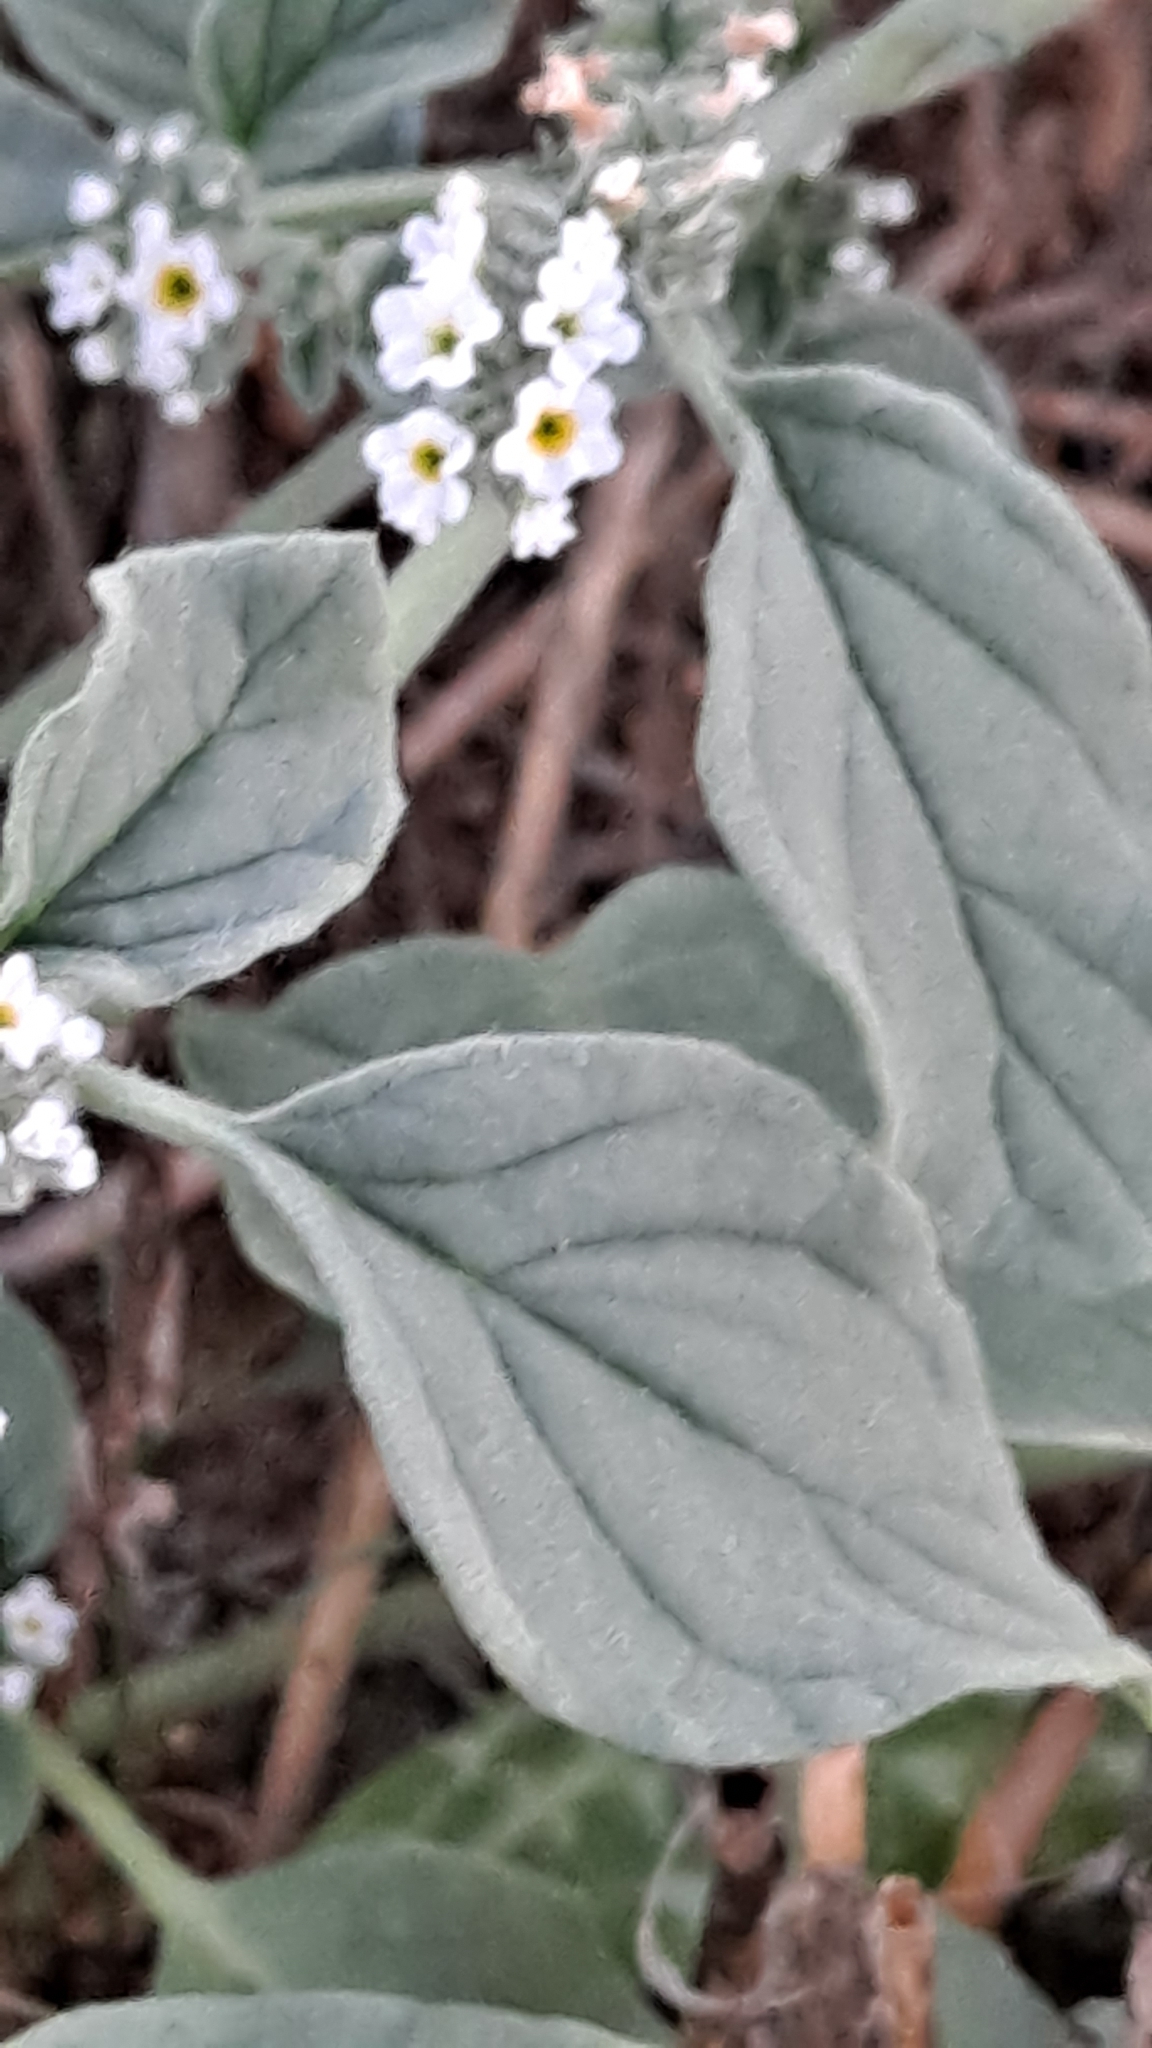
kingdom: Plantae
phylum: Tracheophyta
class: Magnoliopsida
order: Boraginales
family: Heliotropiaceae
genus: Heliotropium
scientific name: Heliotropium europaeum
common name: European heliotrope
